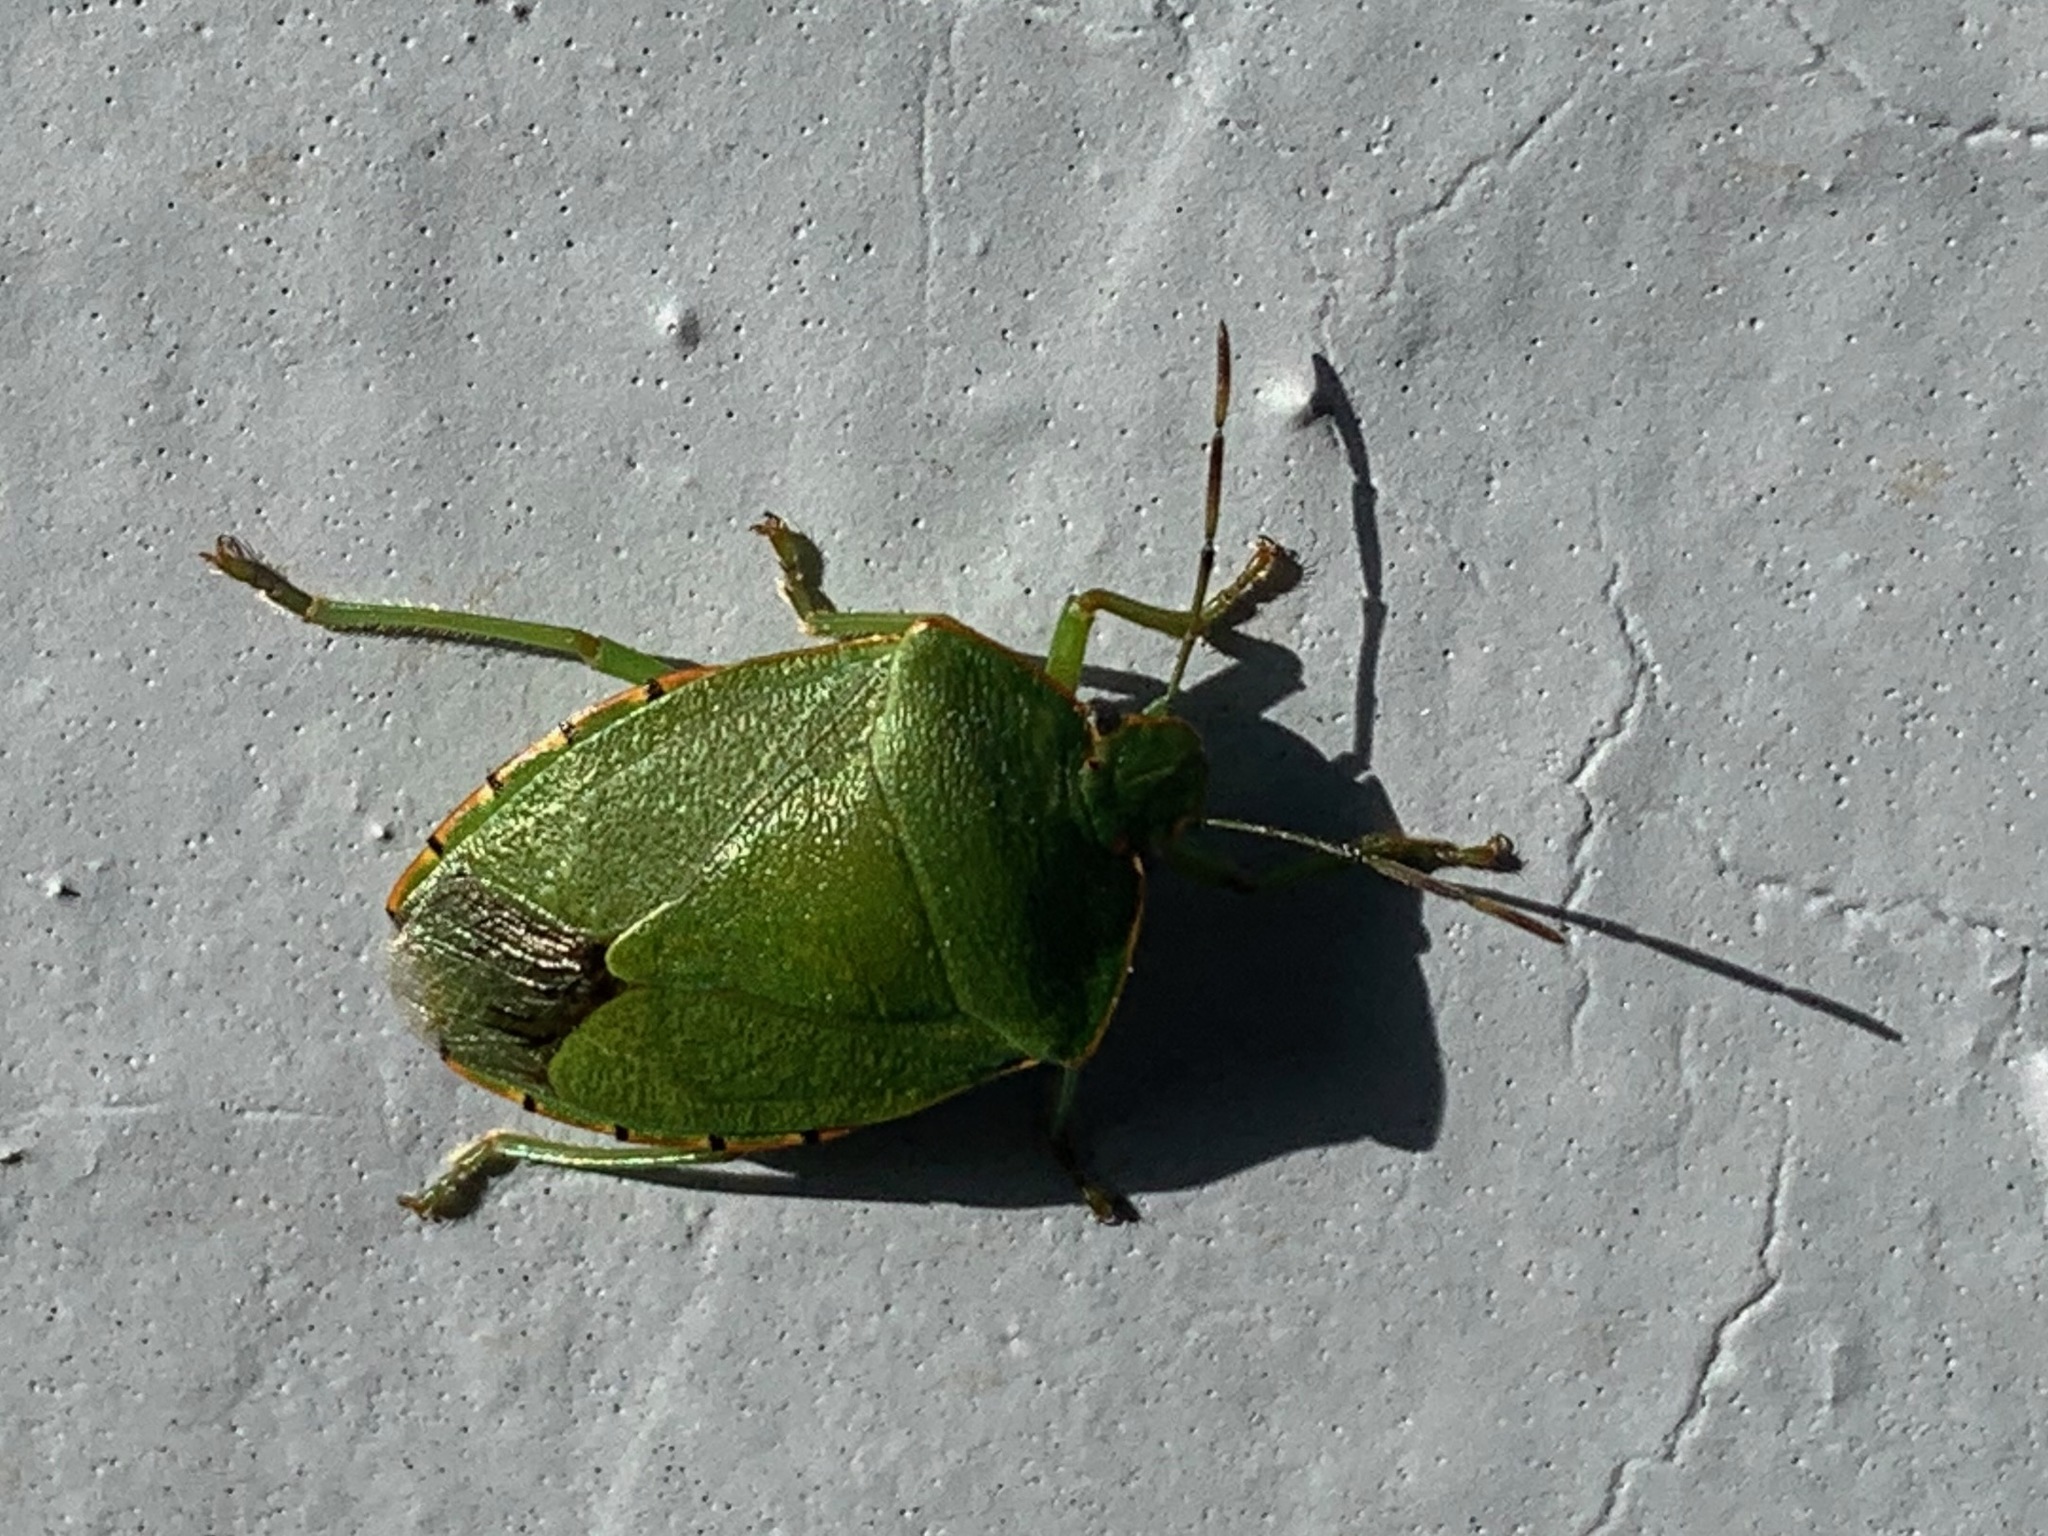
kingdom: Animalia
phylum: Arthropoda
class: Insecta
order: Hemiptera
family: Pentatomidae
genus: Chinavia
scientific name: Chinavia hilaris
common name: Green stink bug
